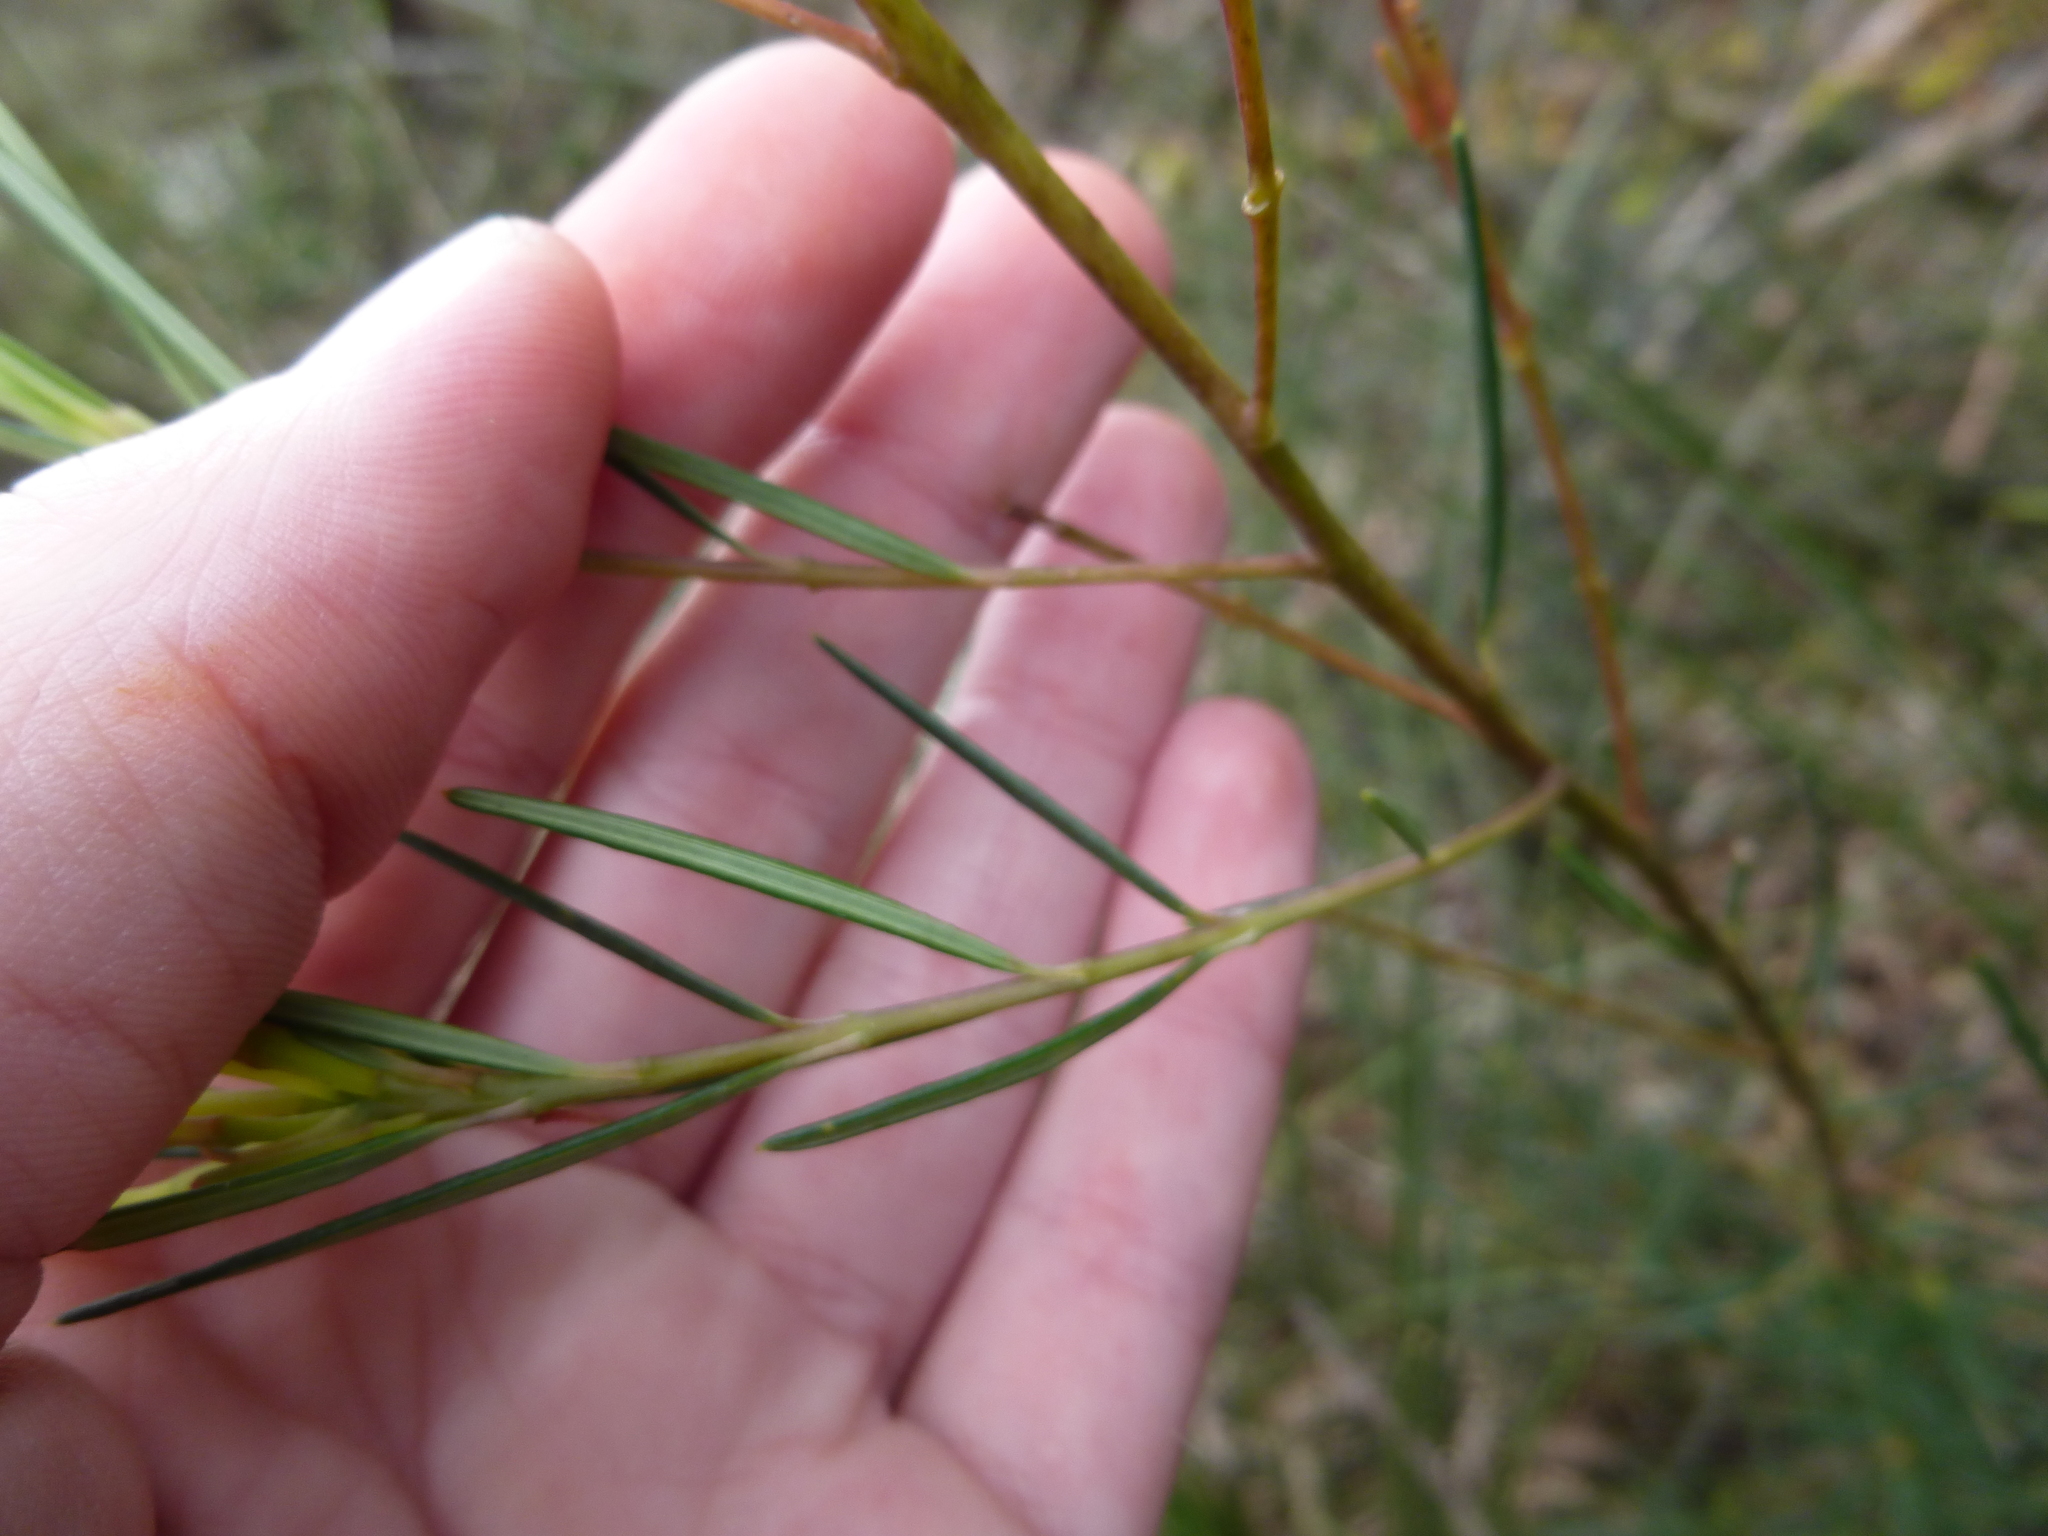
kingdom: Plantae
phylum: Tracheophyta
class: Magnoliopsida
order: Malpighiales
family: Euphorbiaceae
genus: Ricinocarpos
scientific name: Ricinocarpos pinifolius
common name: Weddingbush
